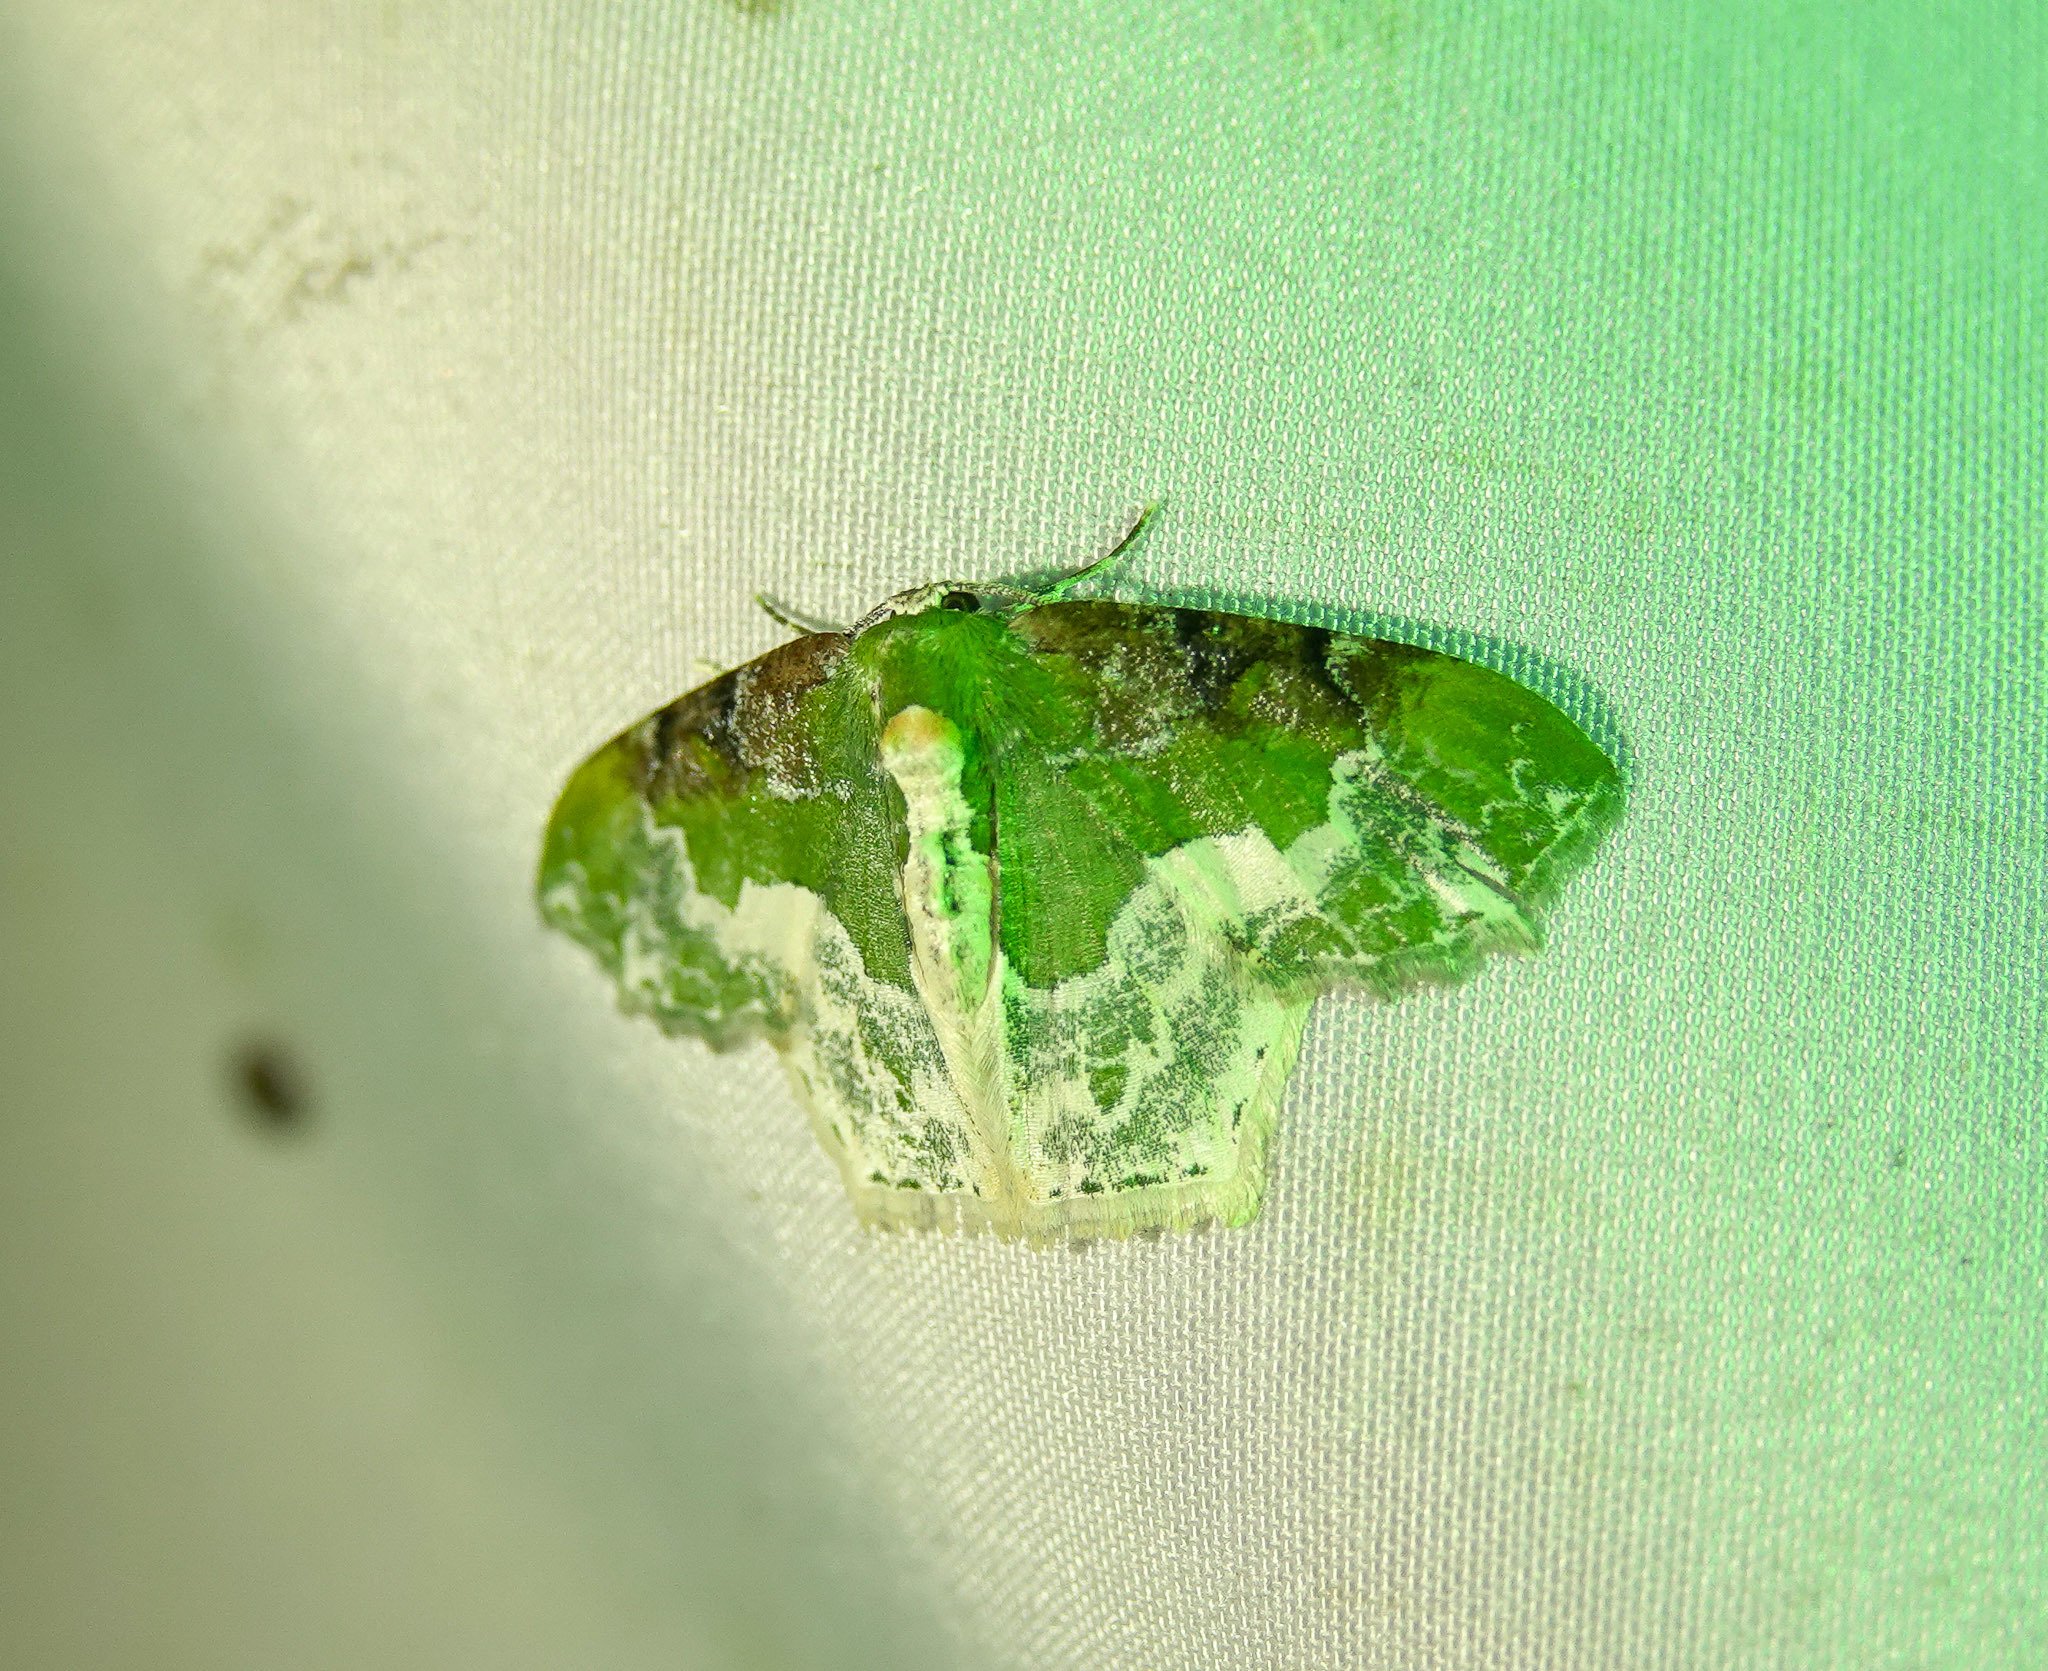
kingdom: Animalia
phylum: Arthropoda
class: Insecta
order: Lepidoptera
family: Geometridae
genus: Eucyclodes
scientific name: Eucyclodes semialba
